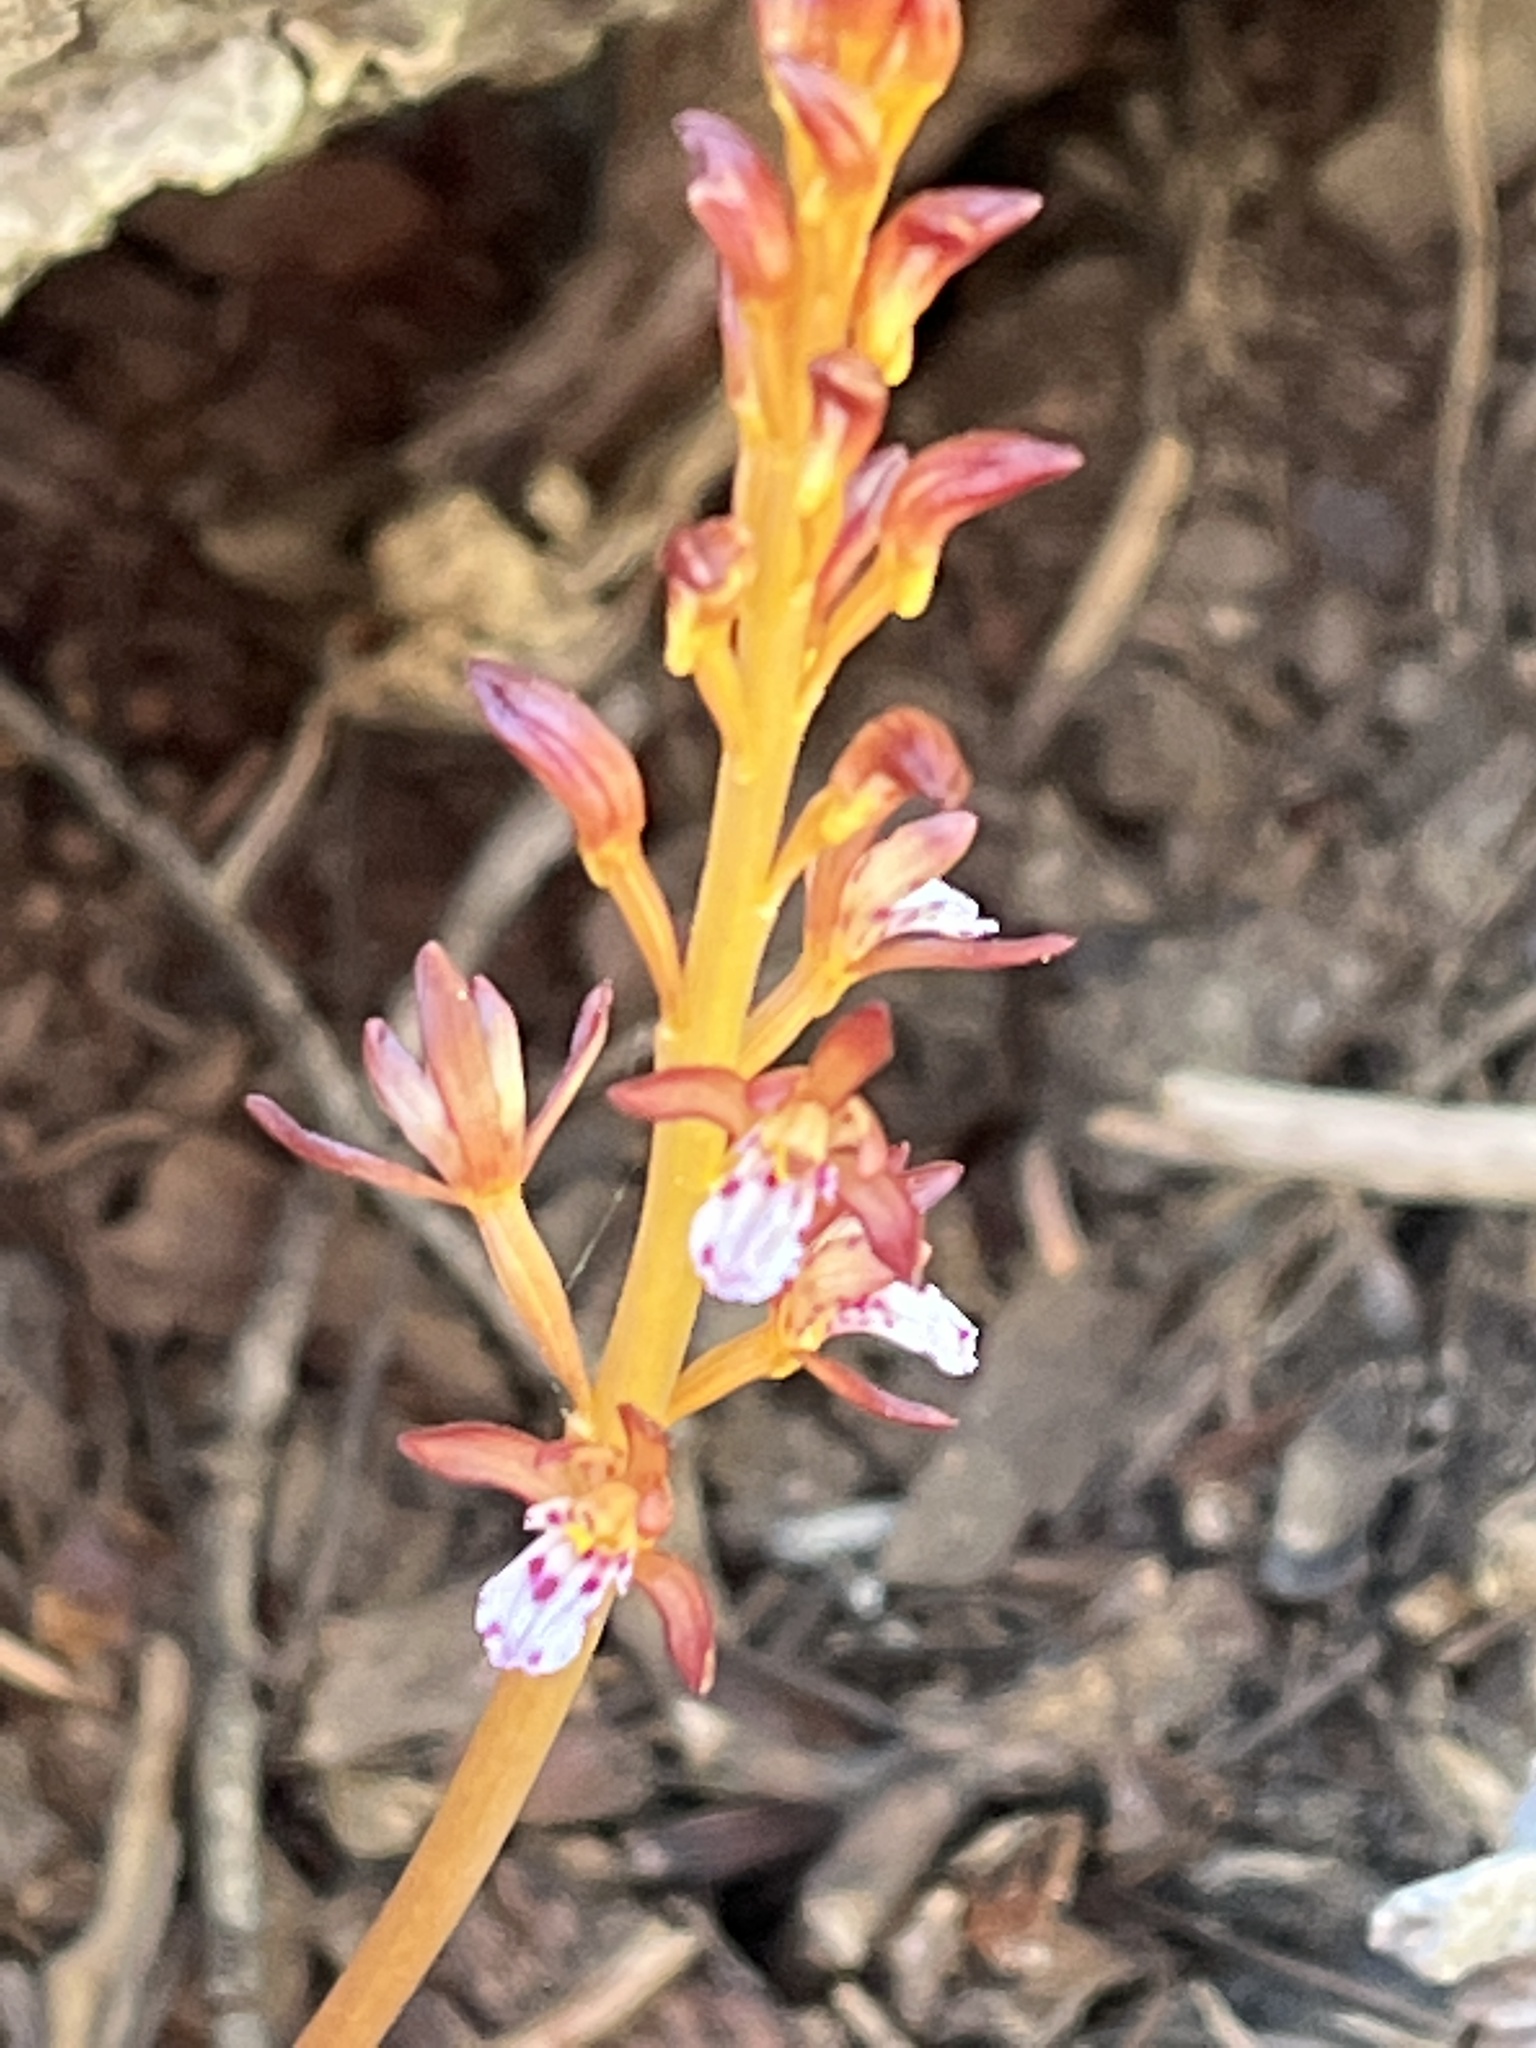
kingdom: Plantae
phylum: Tracheophyta
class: Liliopsida
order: Asparagales
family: Orchidaceae
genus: Corallorhiza
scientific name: Corallorhiza maculata
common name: Spotted coralroot
